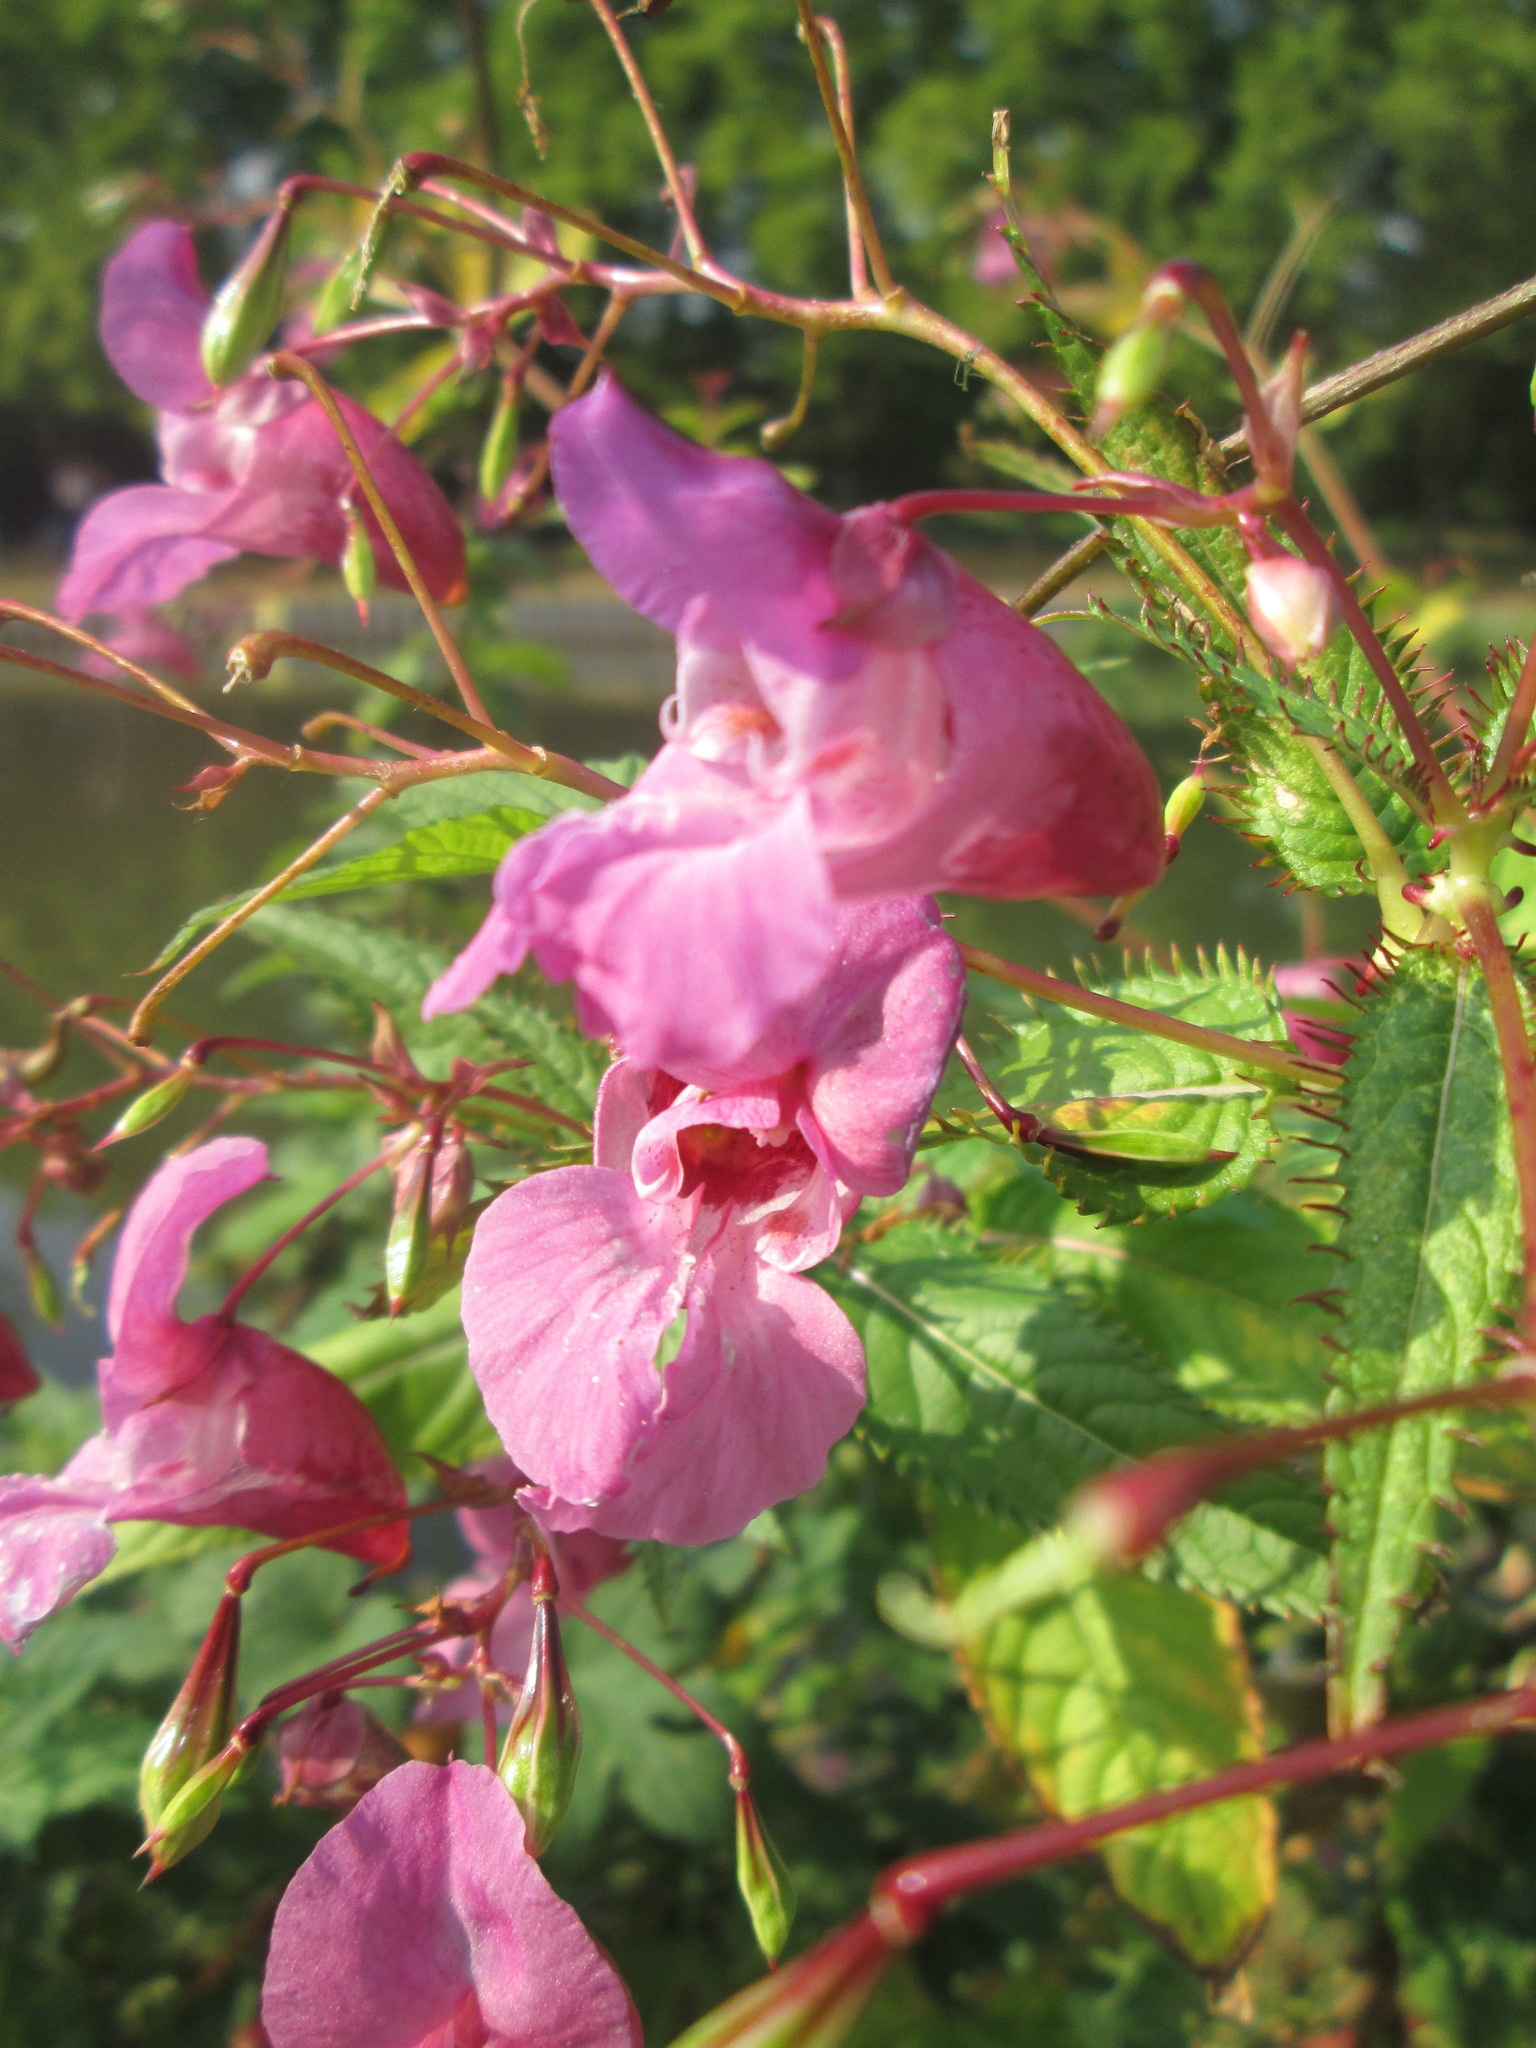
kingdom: Plantae
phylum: Tracheophyta
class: Magnoliopsida
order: Ericales
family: Balsaminaceae
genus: Impatiens
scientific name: Impatiens glandulifera
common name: Himalayan balsam
